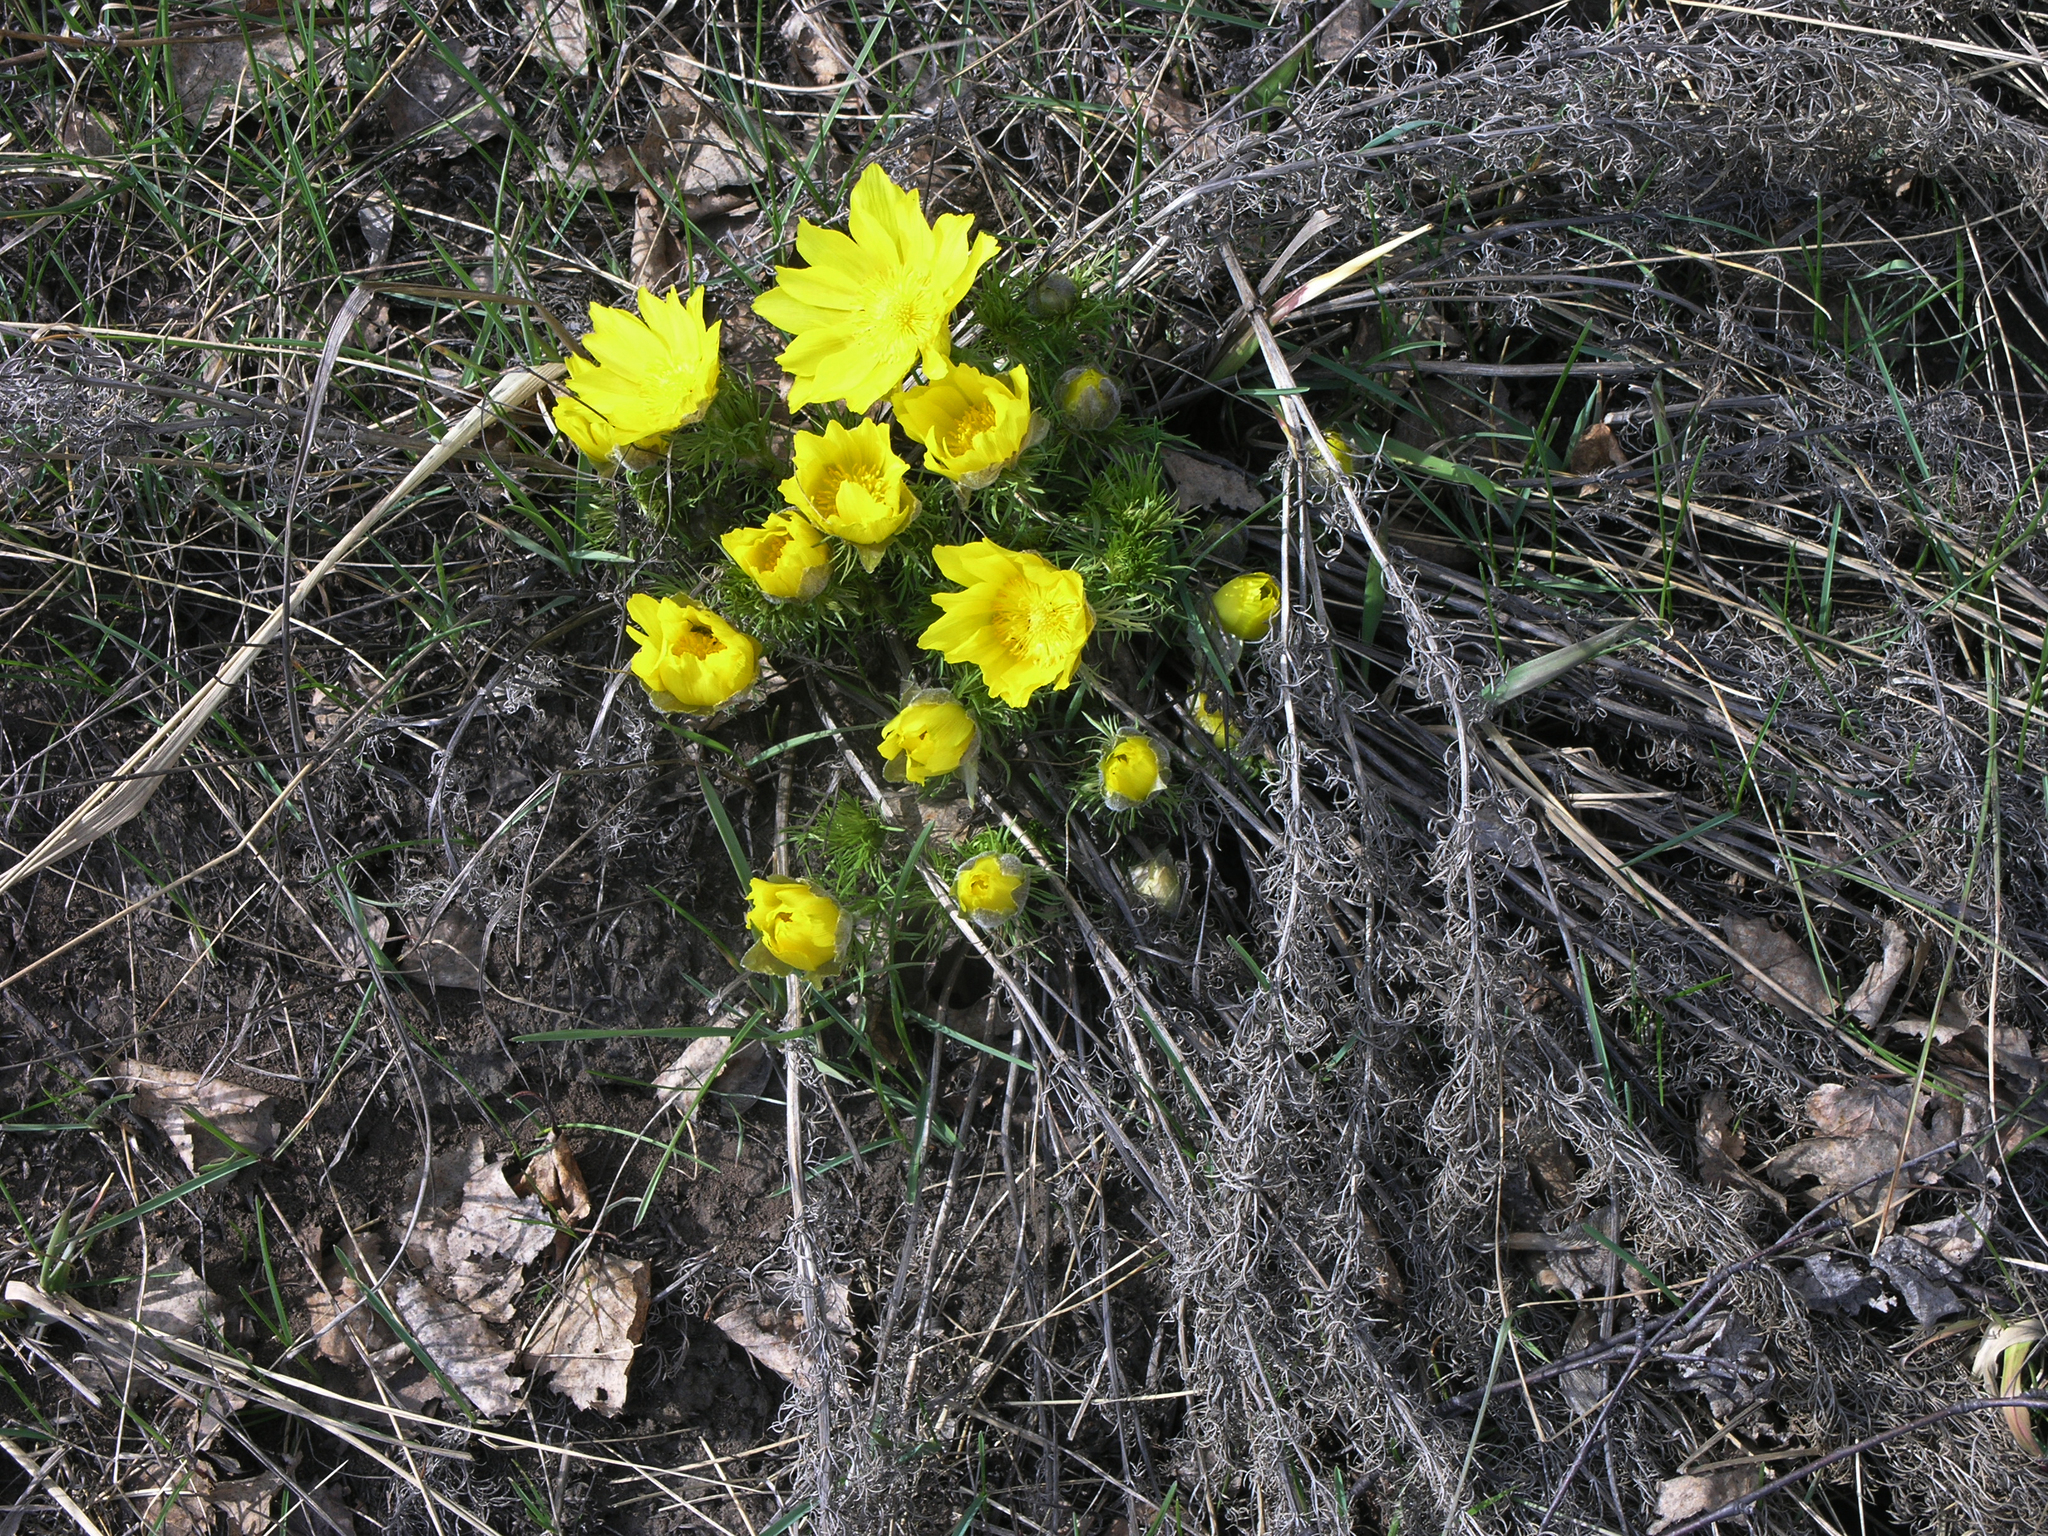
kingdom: Plantae
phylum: Tracheophyta
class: Magnoliopsida
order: Ranunculales
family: Ranunculaceae
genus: Adonis
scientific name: Adonis vernalis
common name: Yellow pheasants-eye
